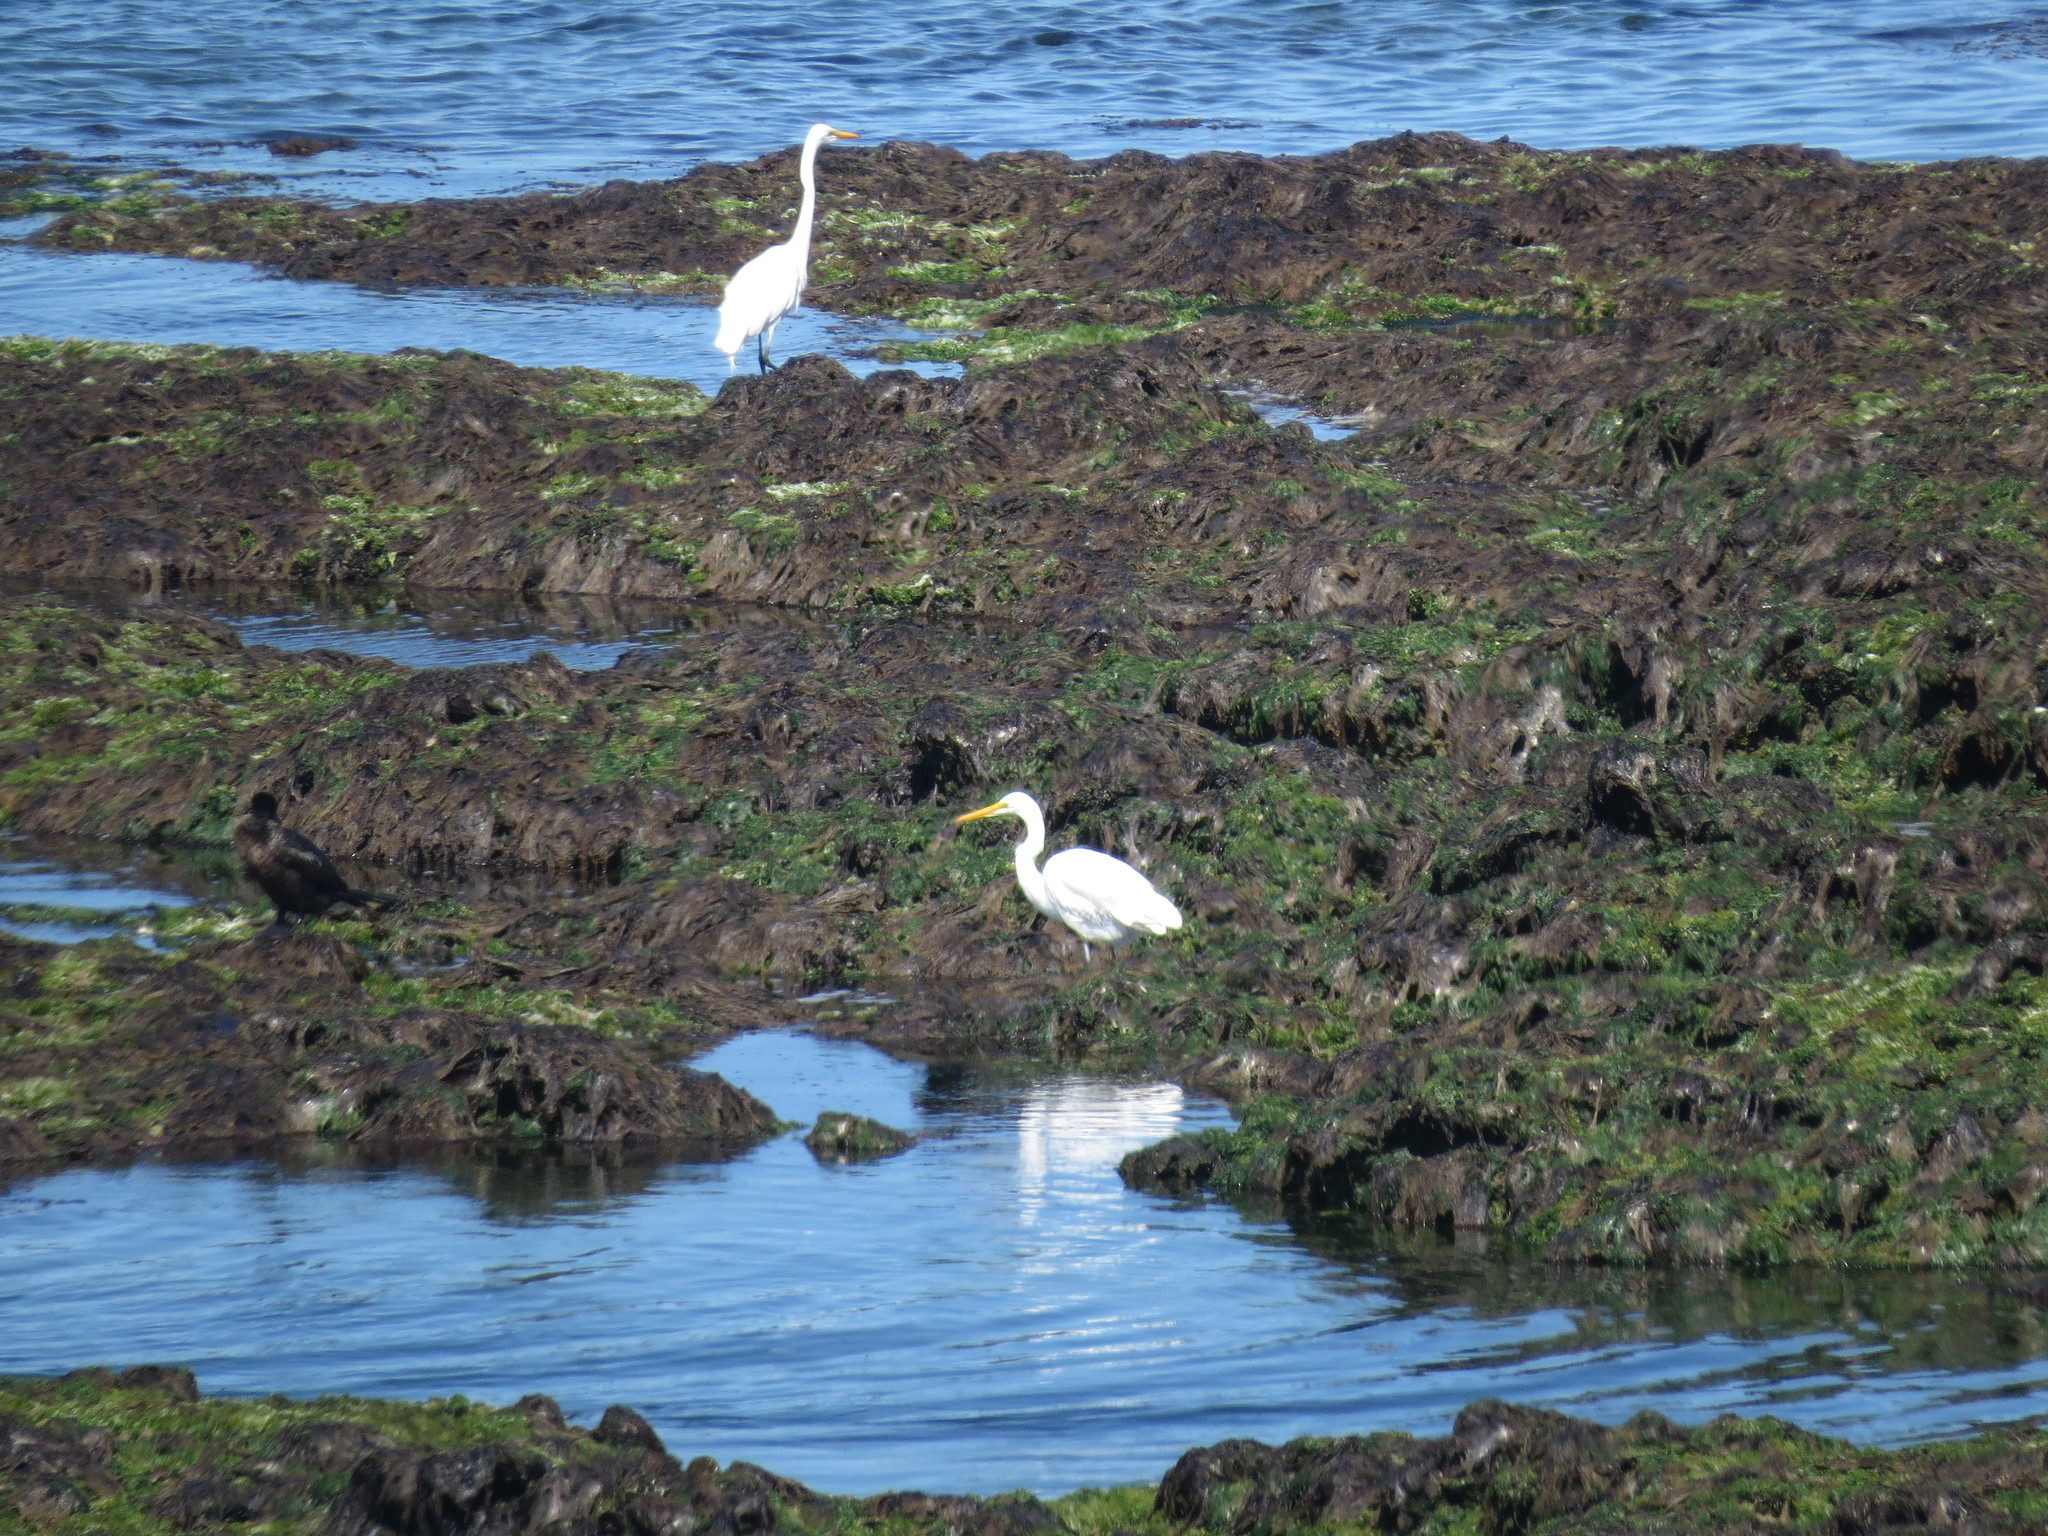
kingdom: Animalia
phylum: Chordata
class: Aves
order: Pelecaniformes
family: Ardeidae
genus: Ardea
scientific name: Ardea alba
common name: Great egret
